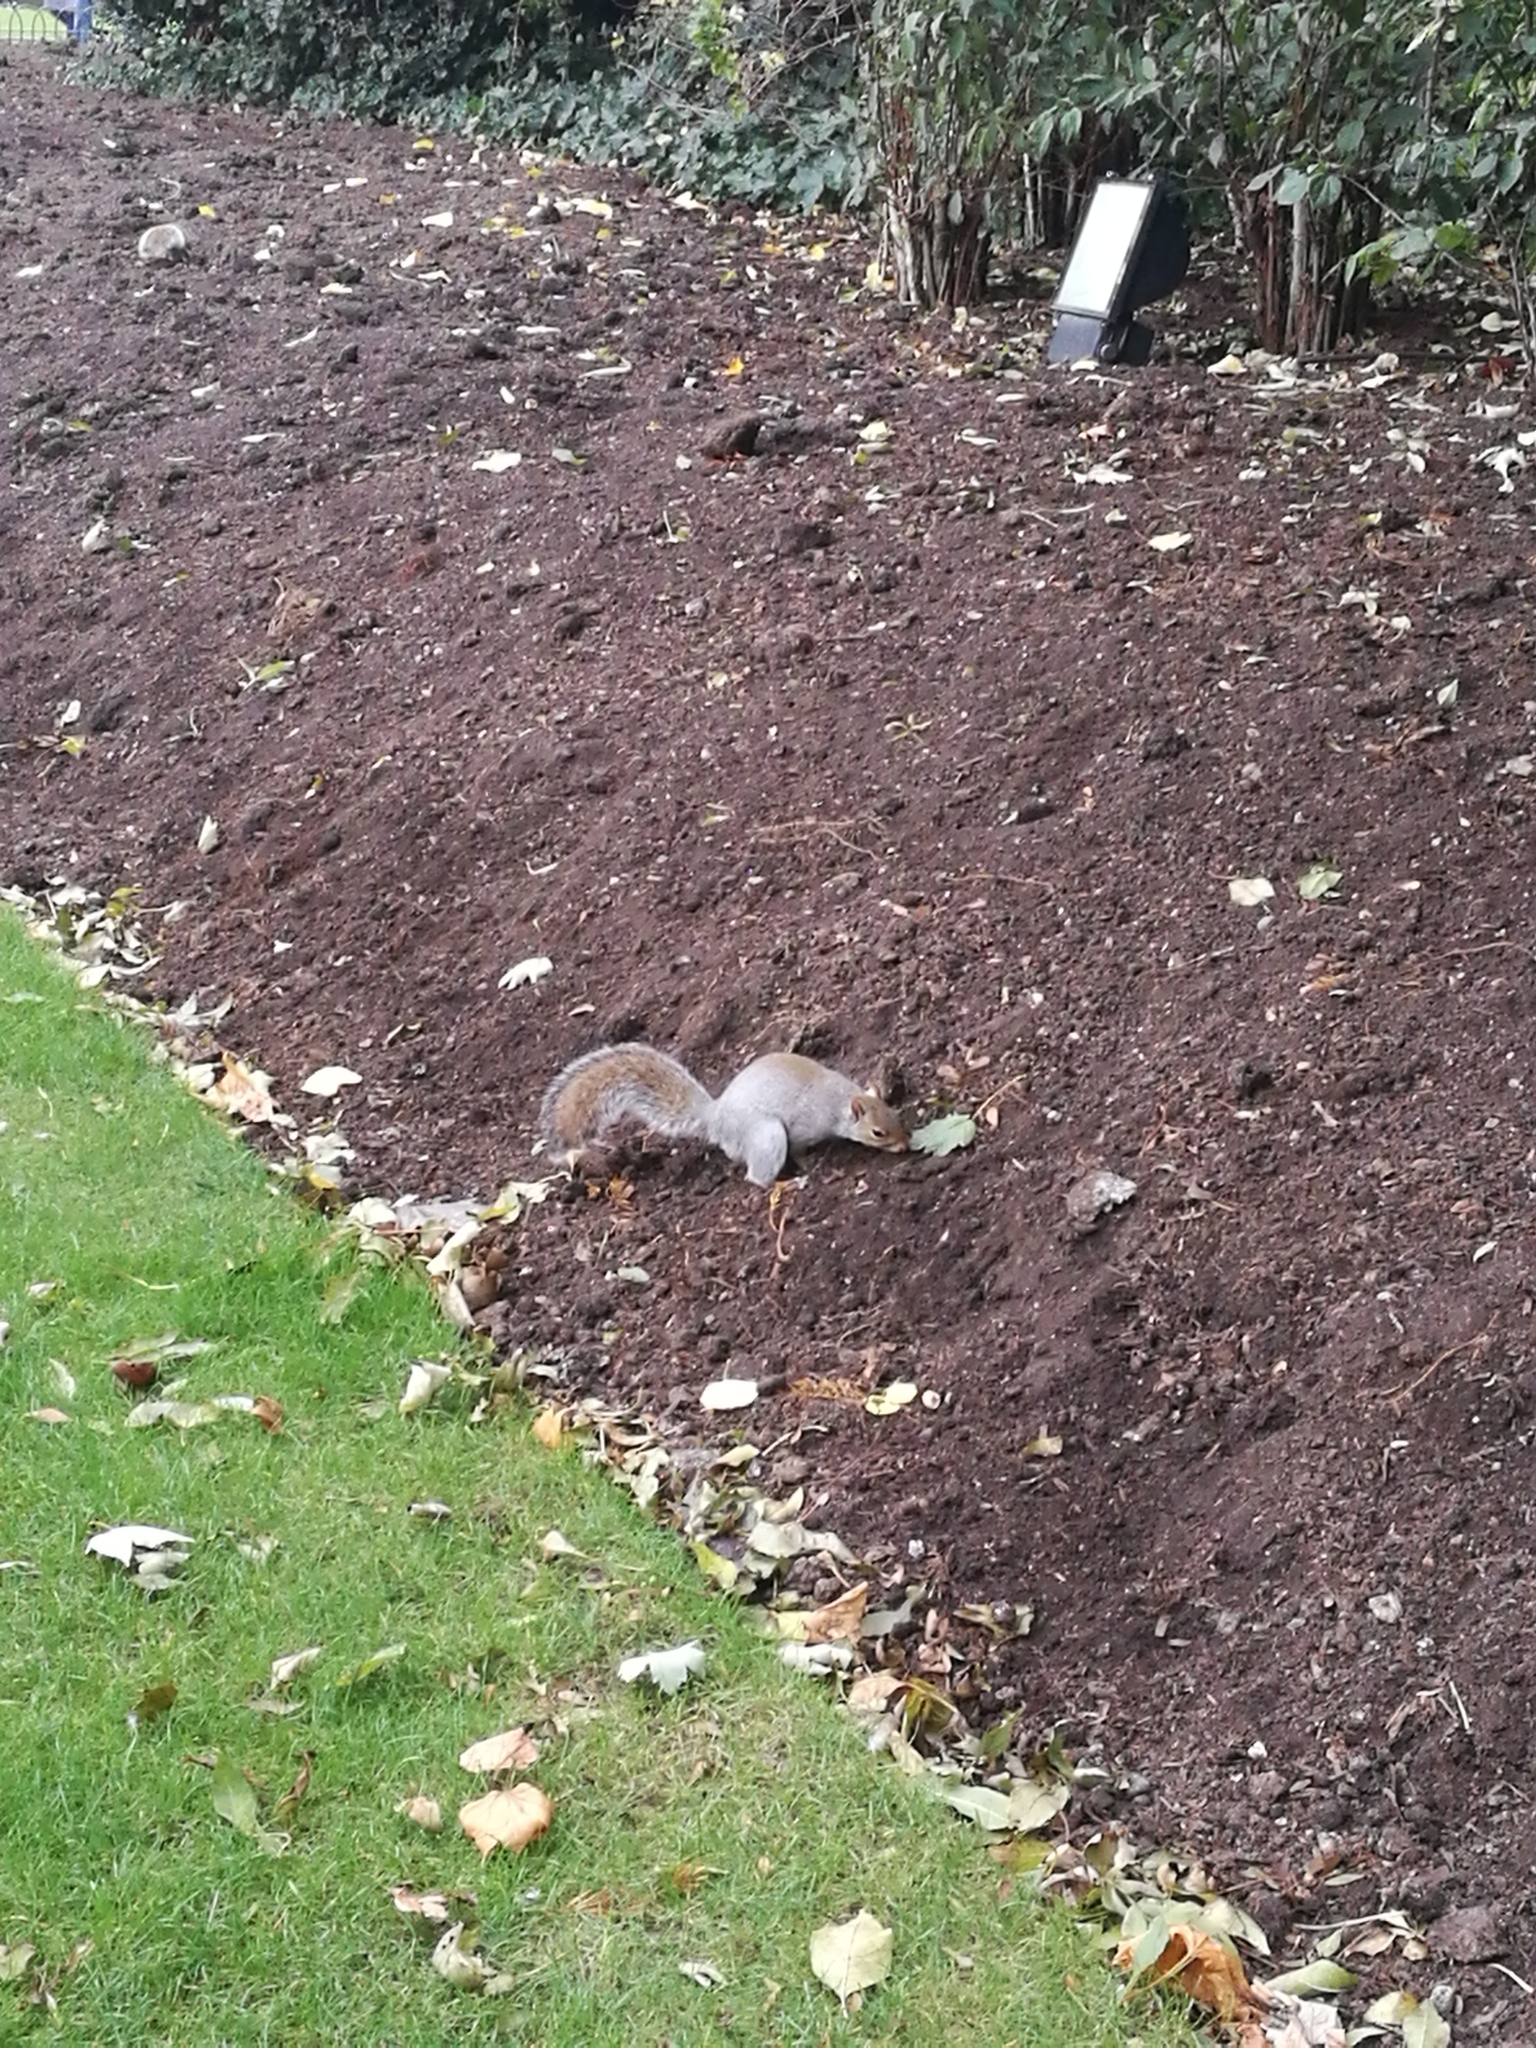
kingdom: Animalia
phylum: Chordata
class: Mammalia
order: Rodentia
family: Sciuridae
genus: Sciurus
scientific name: Sciurus carolinensis
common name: Eastern gray squirrel
